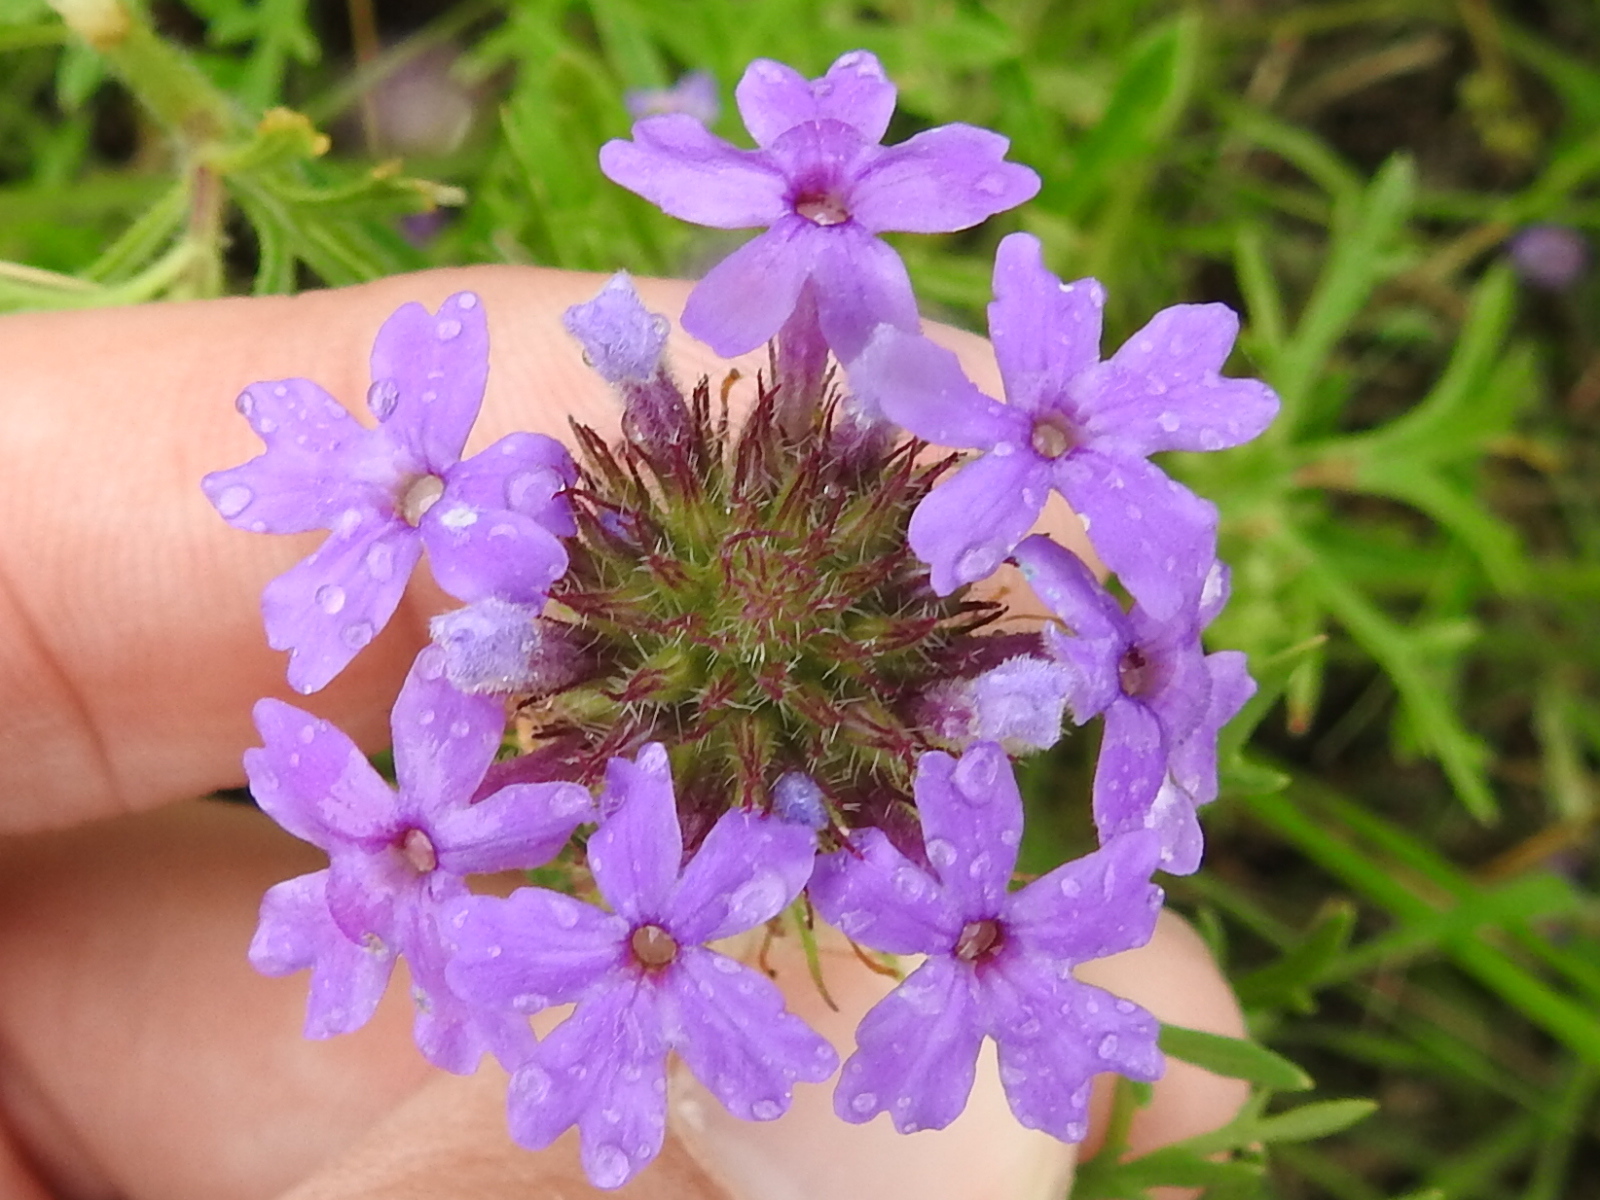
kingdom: Plantae
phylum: Tracheophyta
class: Magnoliopsida
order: Lamiales
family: Verbenaceae
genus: Verbena
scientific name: Verbena bipinnatifida
